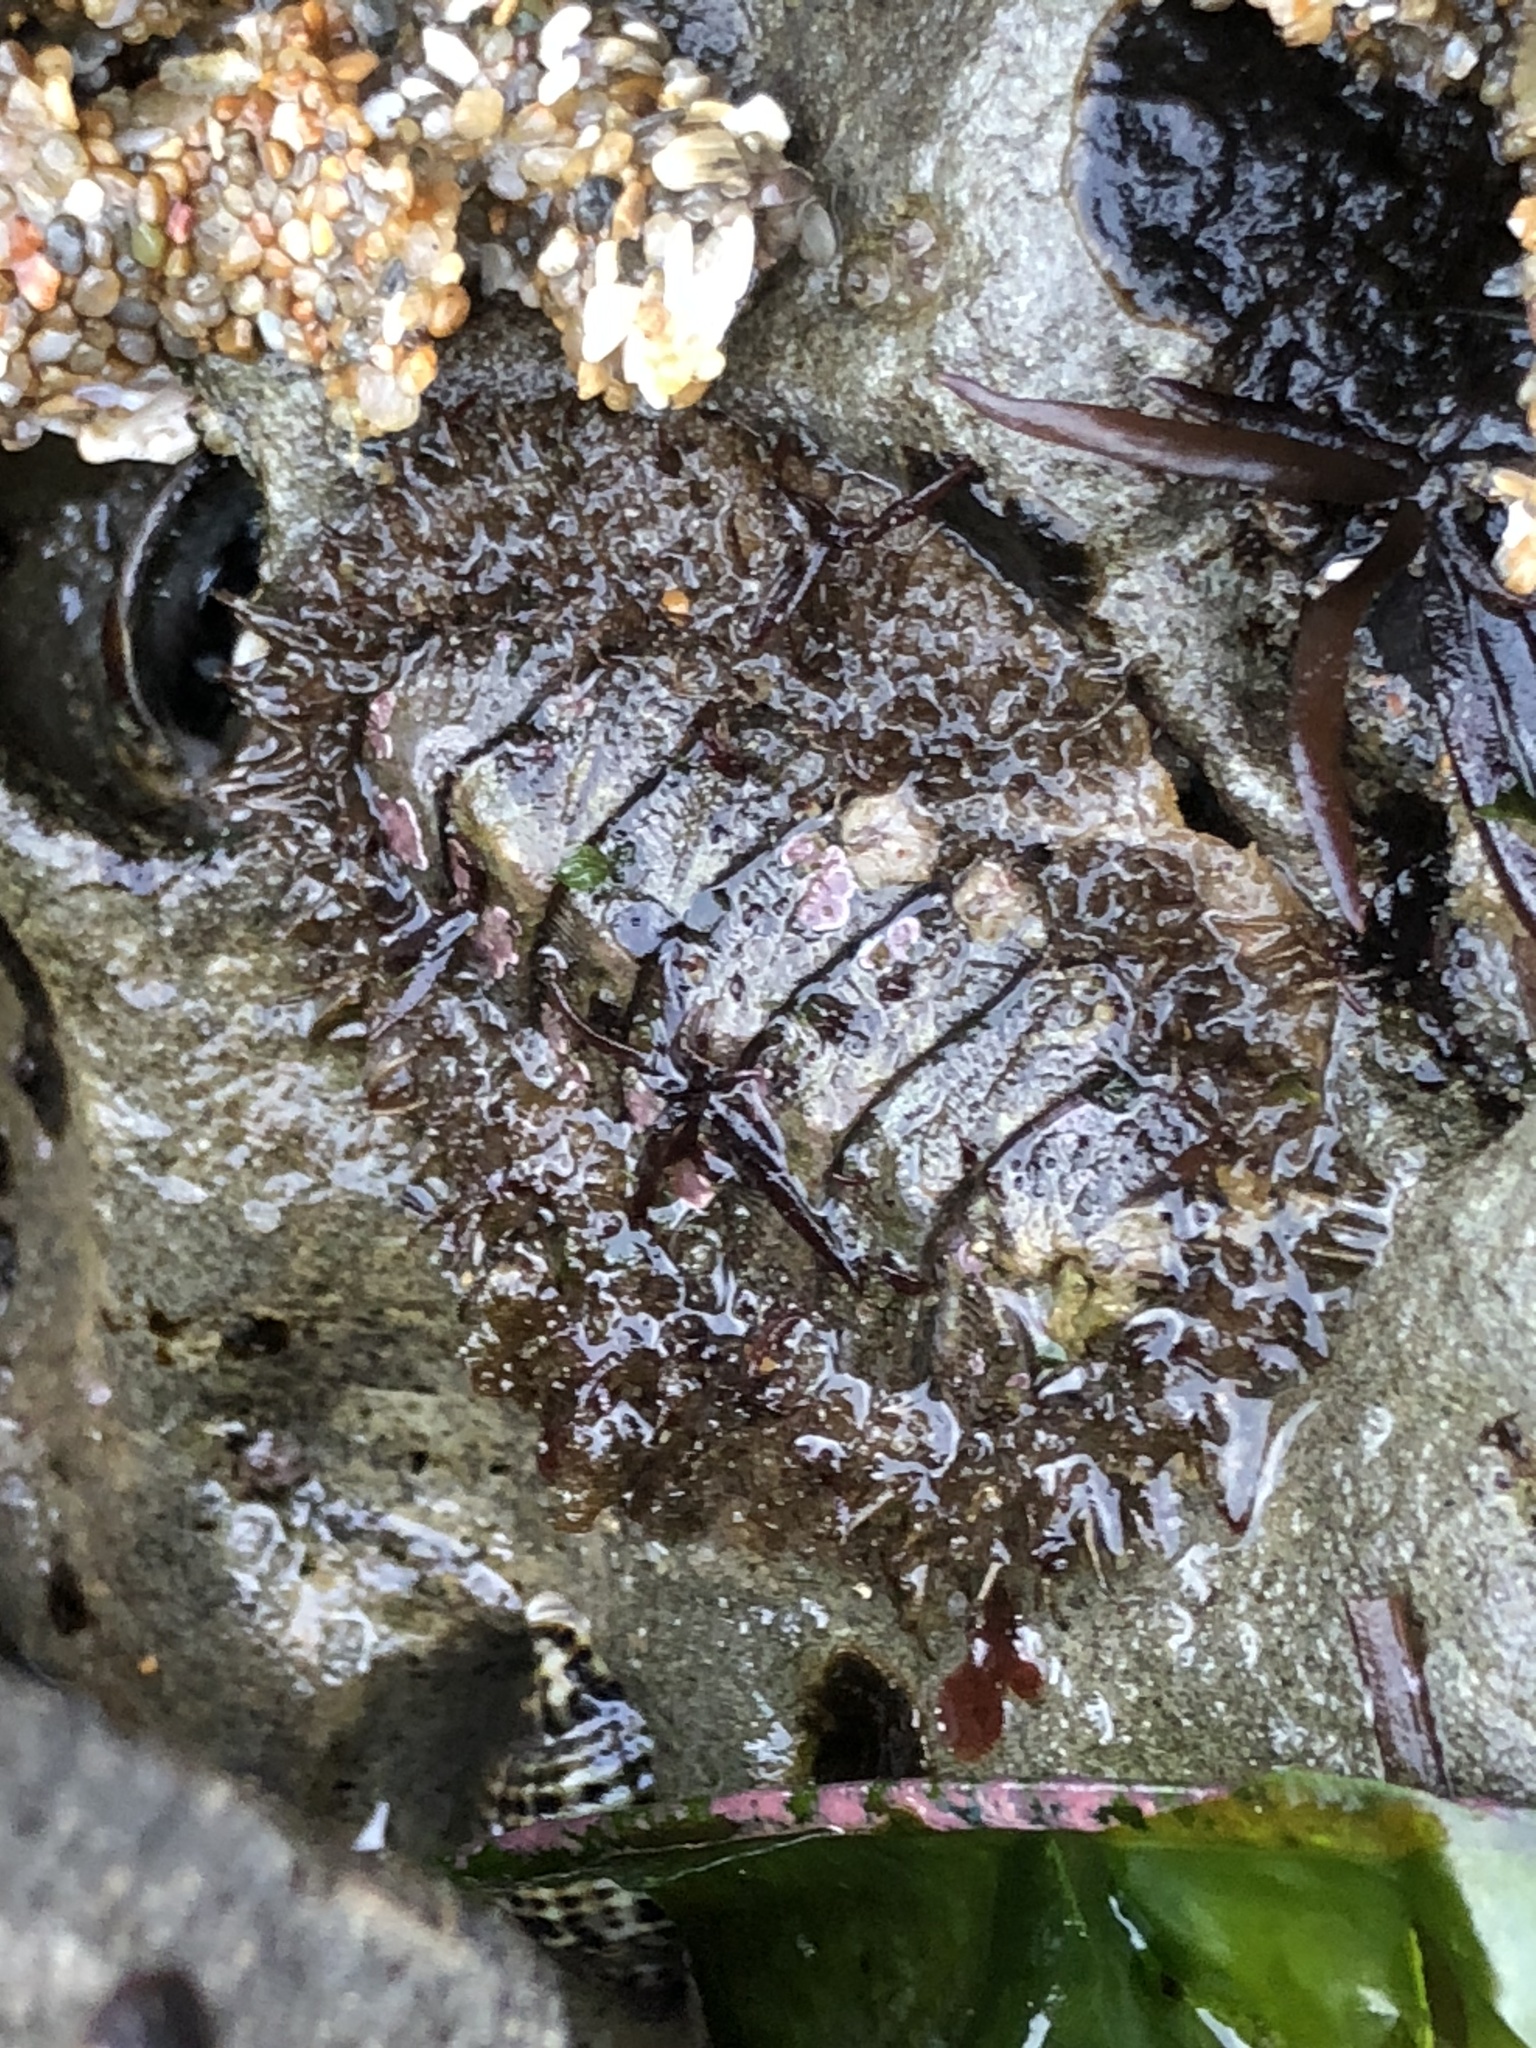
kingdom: Animalia
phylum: Mollusca
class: Polyplacophora
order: Chitonida
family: Mopaliidae
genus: Mopalia
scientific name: Mopalia muscosa
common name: Mossy chiton
